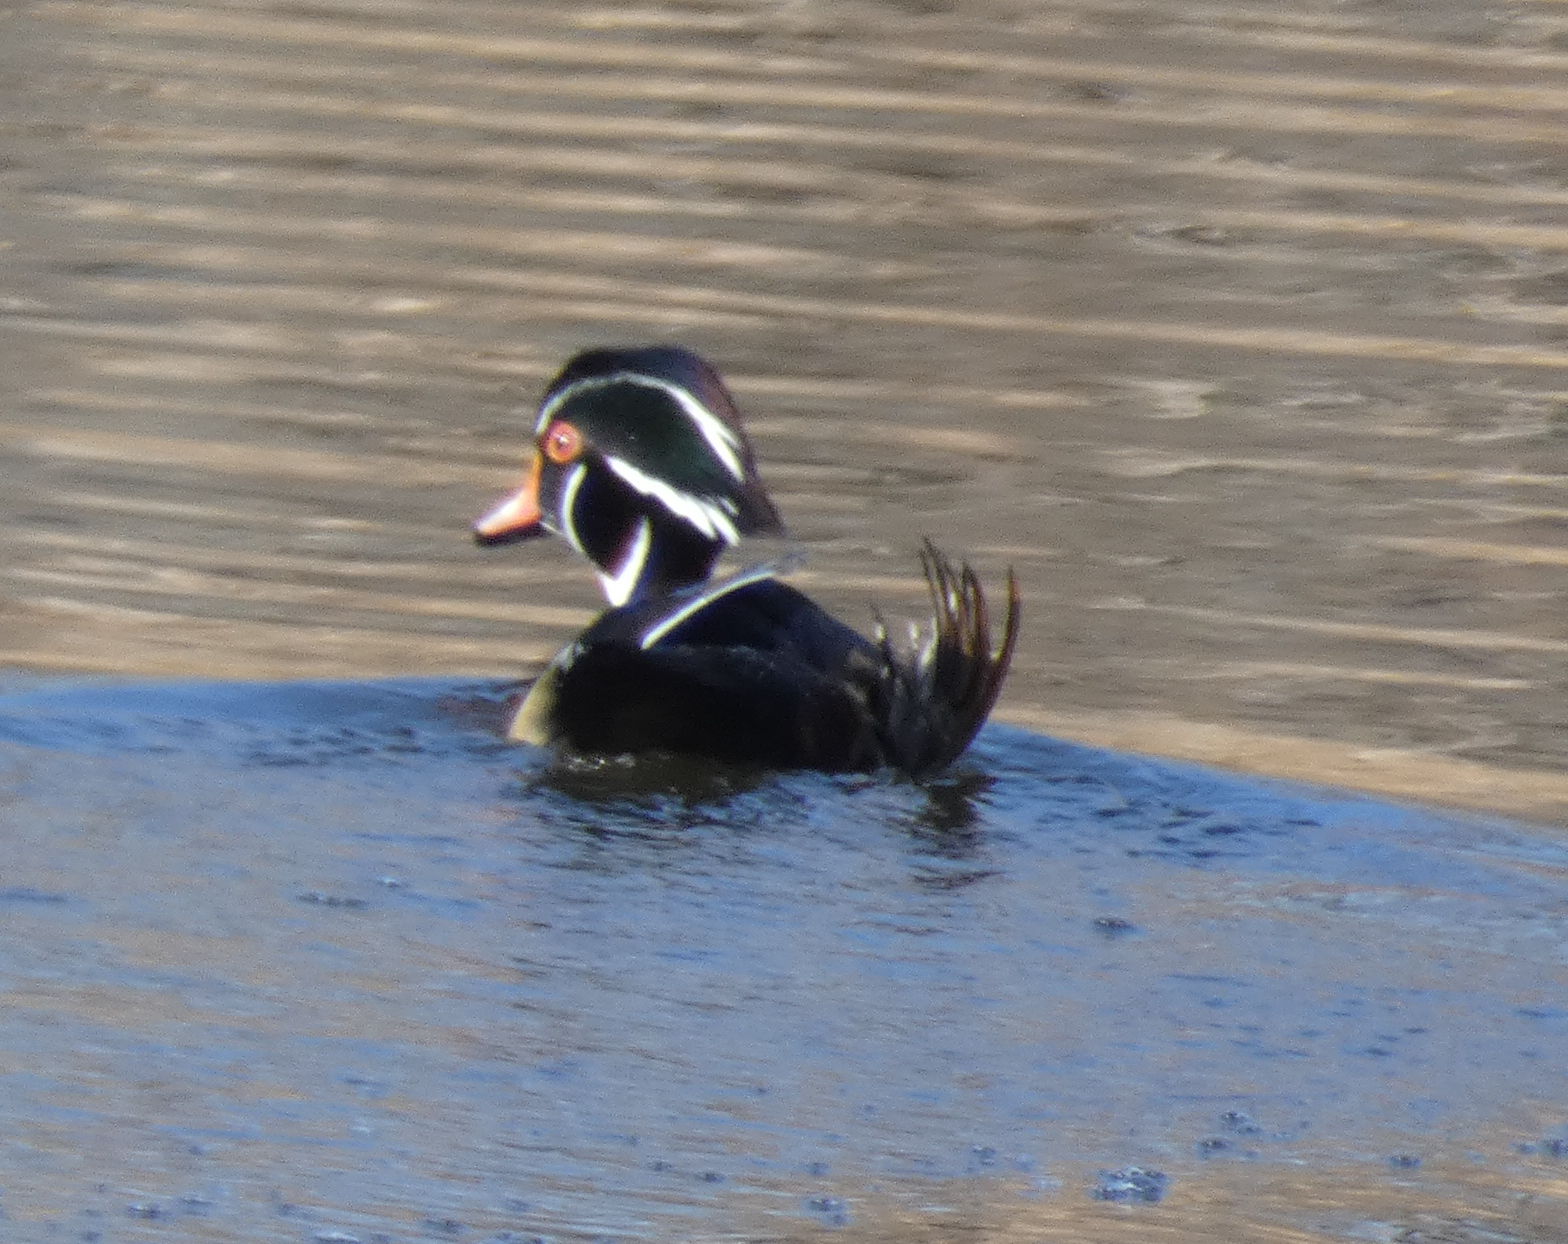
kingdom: Animalia
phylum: Chordata
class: Aves
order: Anseriformes
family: Anatidae
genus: Aix
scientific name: Aix sponsa
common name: Wood duck
